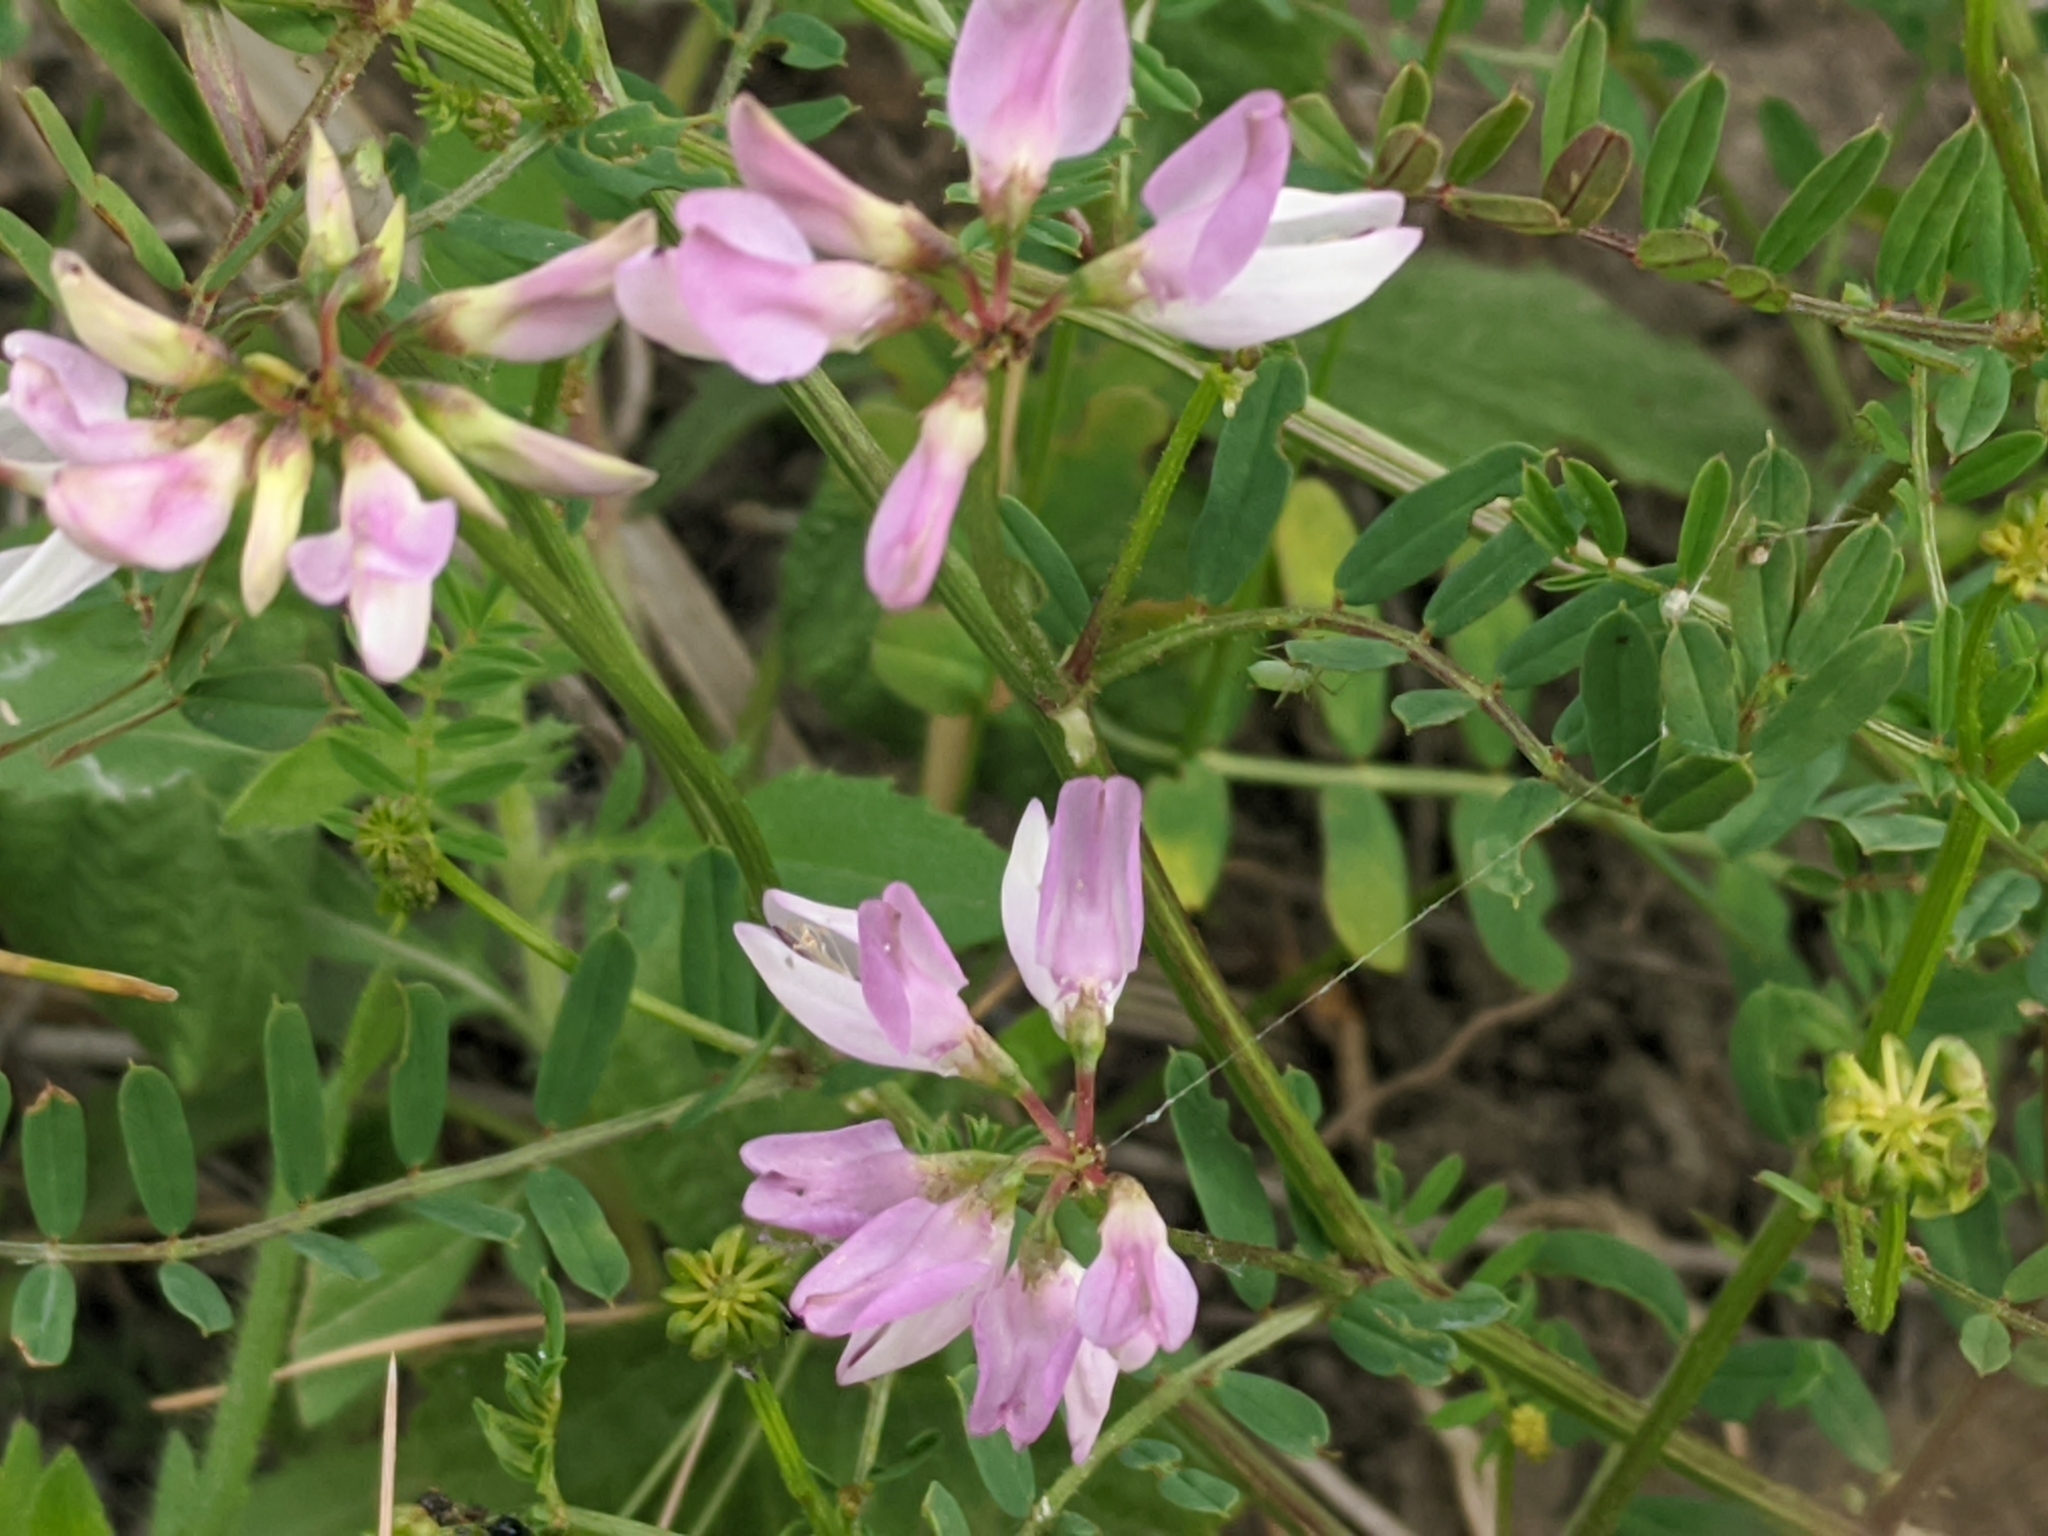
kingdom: Plantae
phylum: Tracheophyta
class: Magnoliopsida
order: Fabales
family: Fabaceae
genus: Coronilla
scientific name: Coronilla varia
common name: Crownvetch
